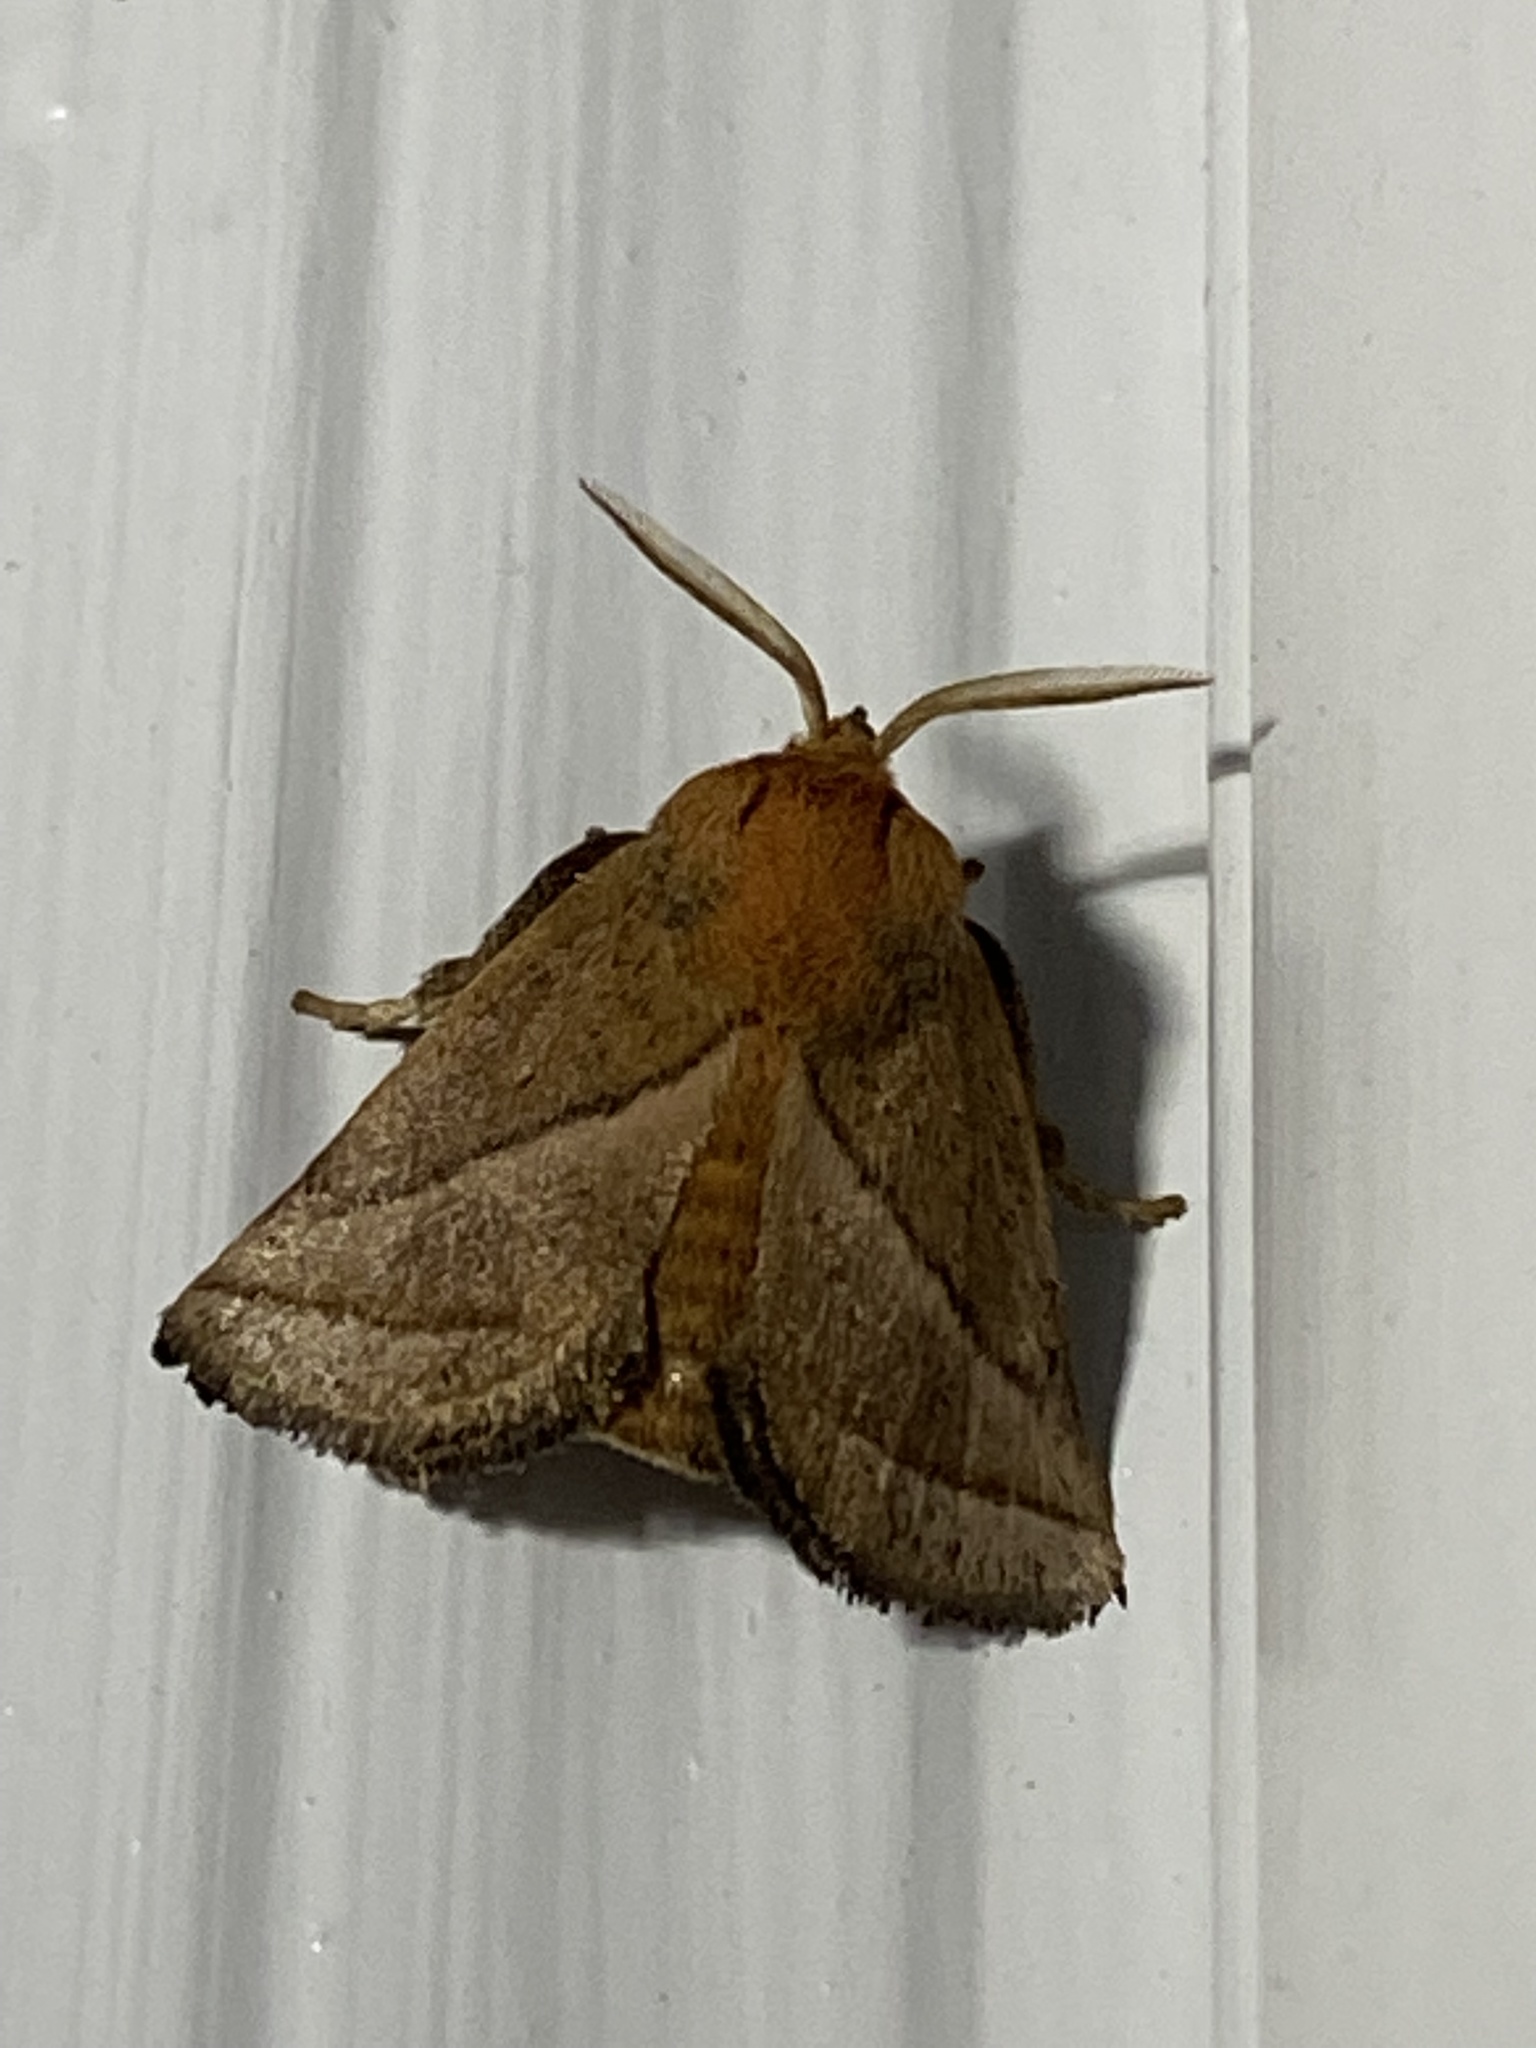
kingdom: Animalia
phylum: Arthropoda
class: Insecta
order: Lepidoptera
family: Limacodidae
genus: Natada
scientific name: Natada nasoni
